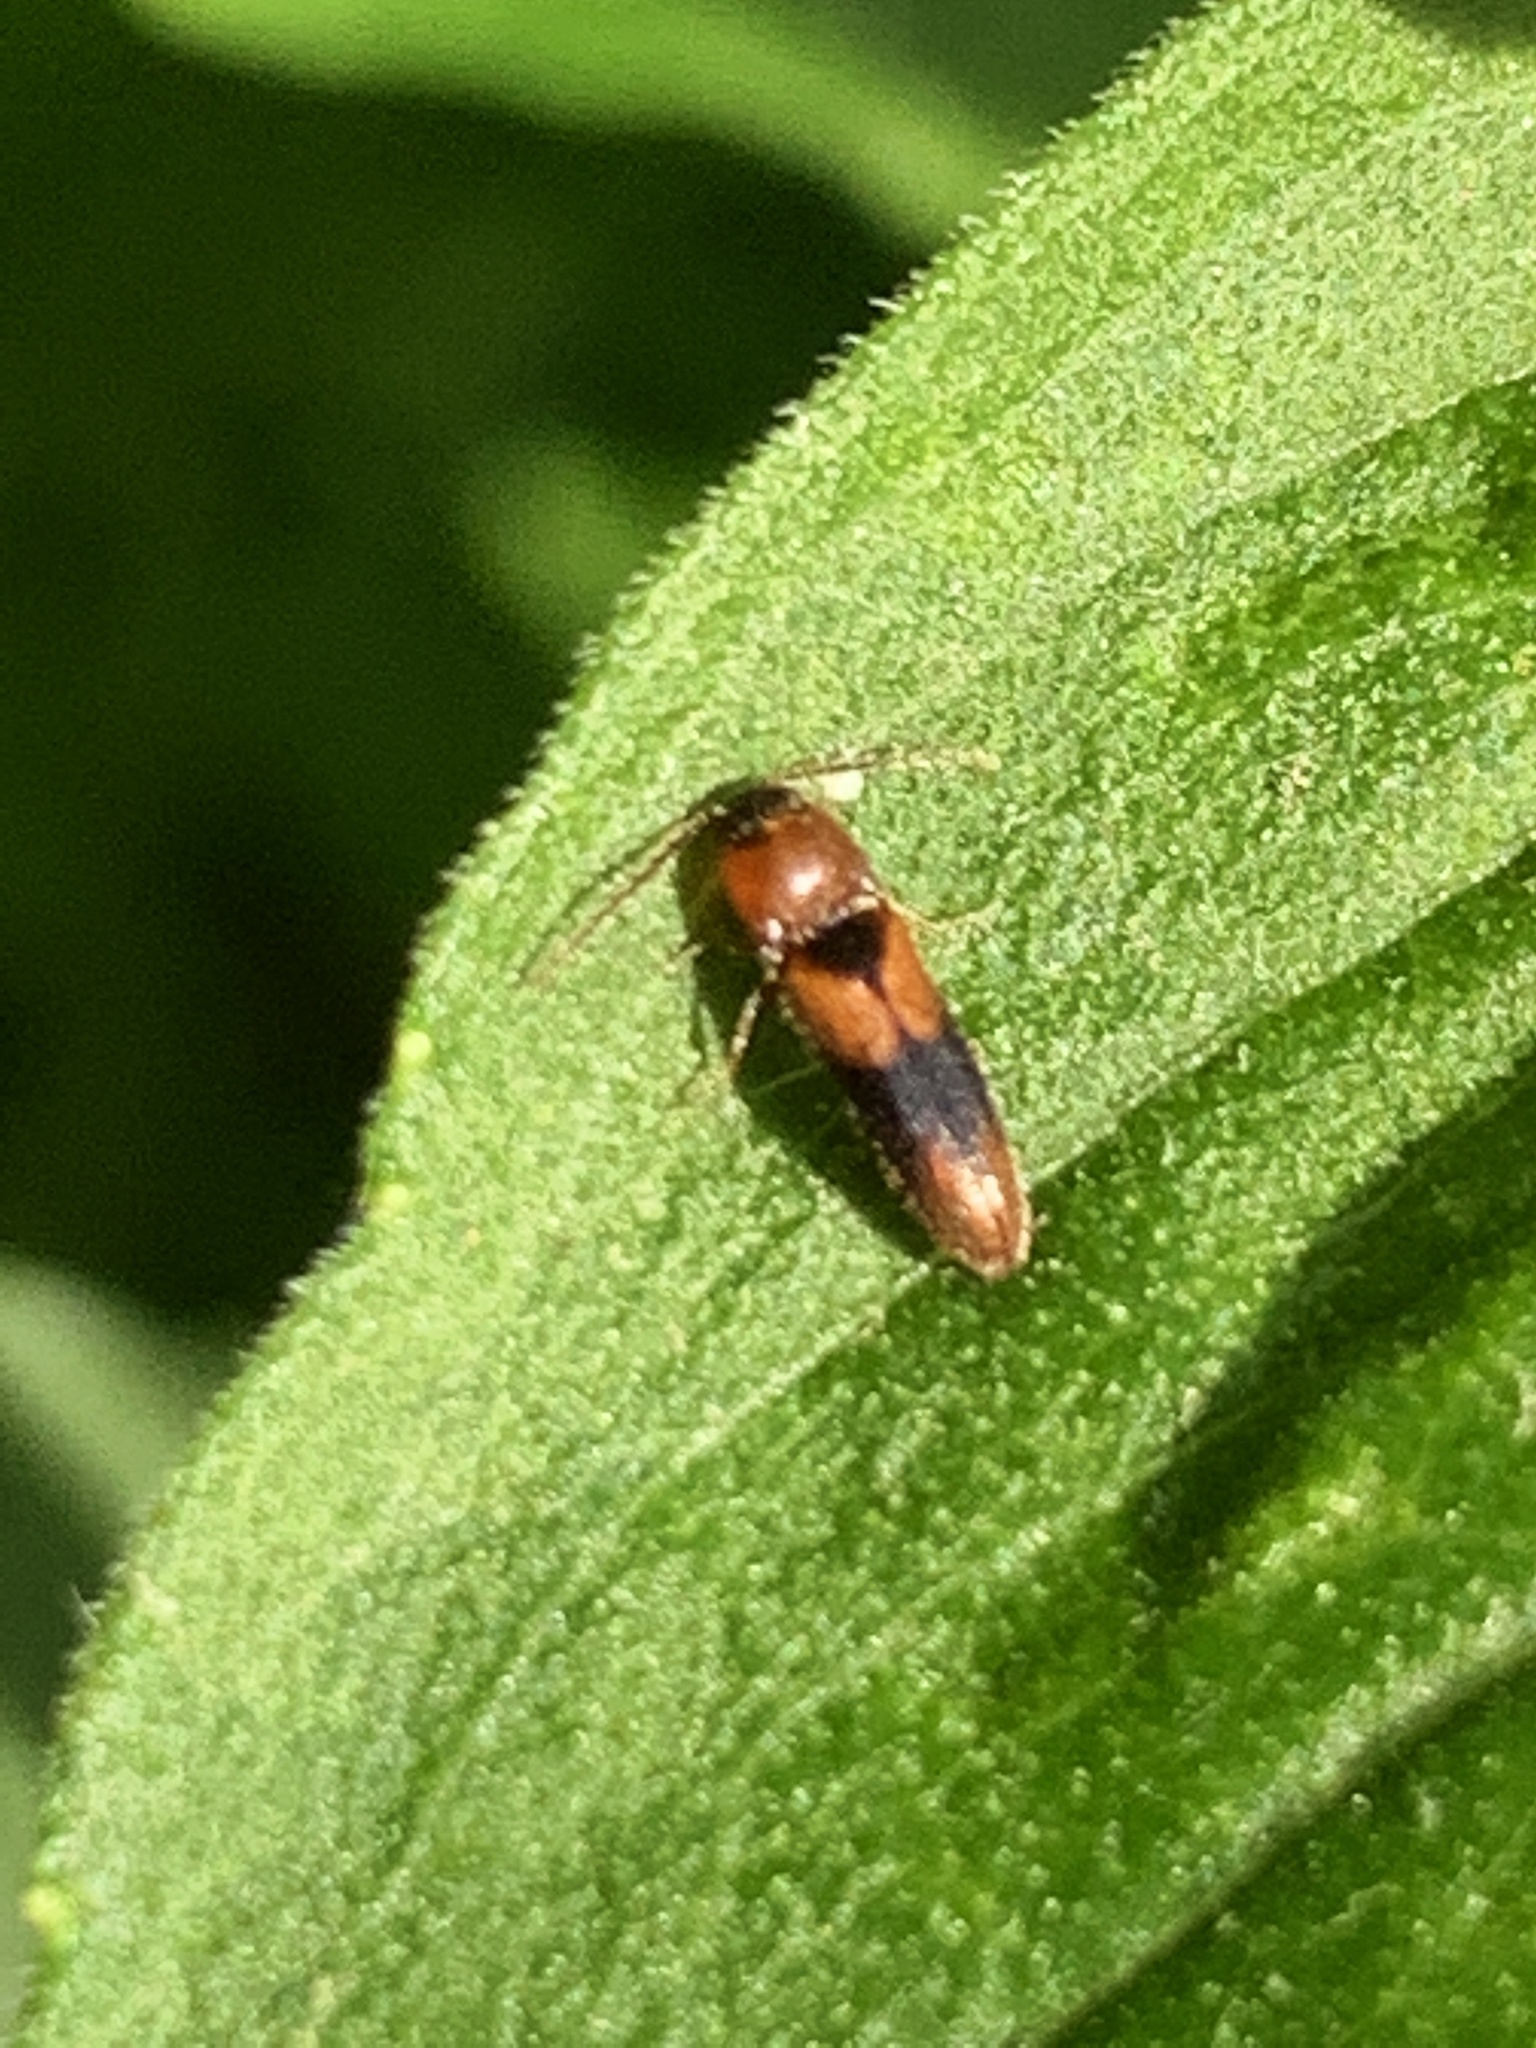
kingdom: Animalia
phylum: Arthropoda
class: Insecta
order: Coleoptera
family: Elateridae
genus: Ampedus
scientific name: Ampedus areolatus
